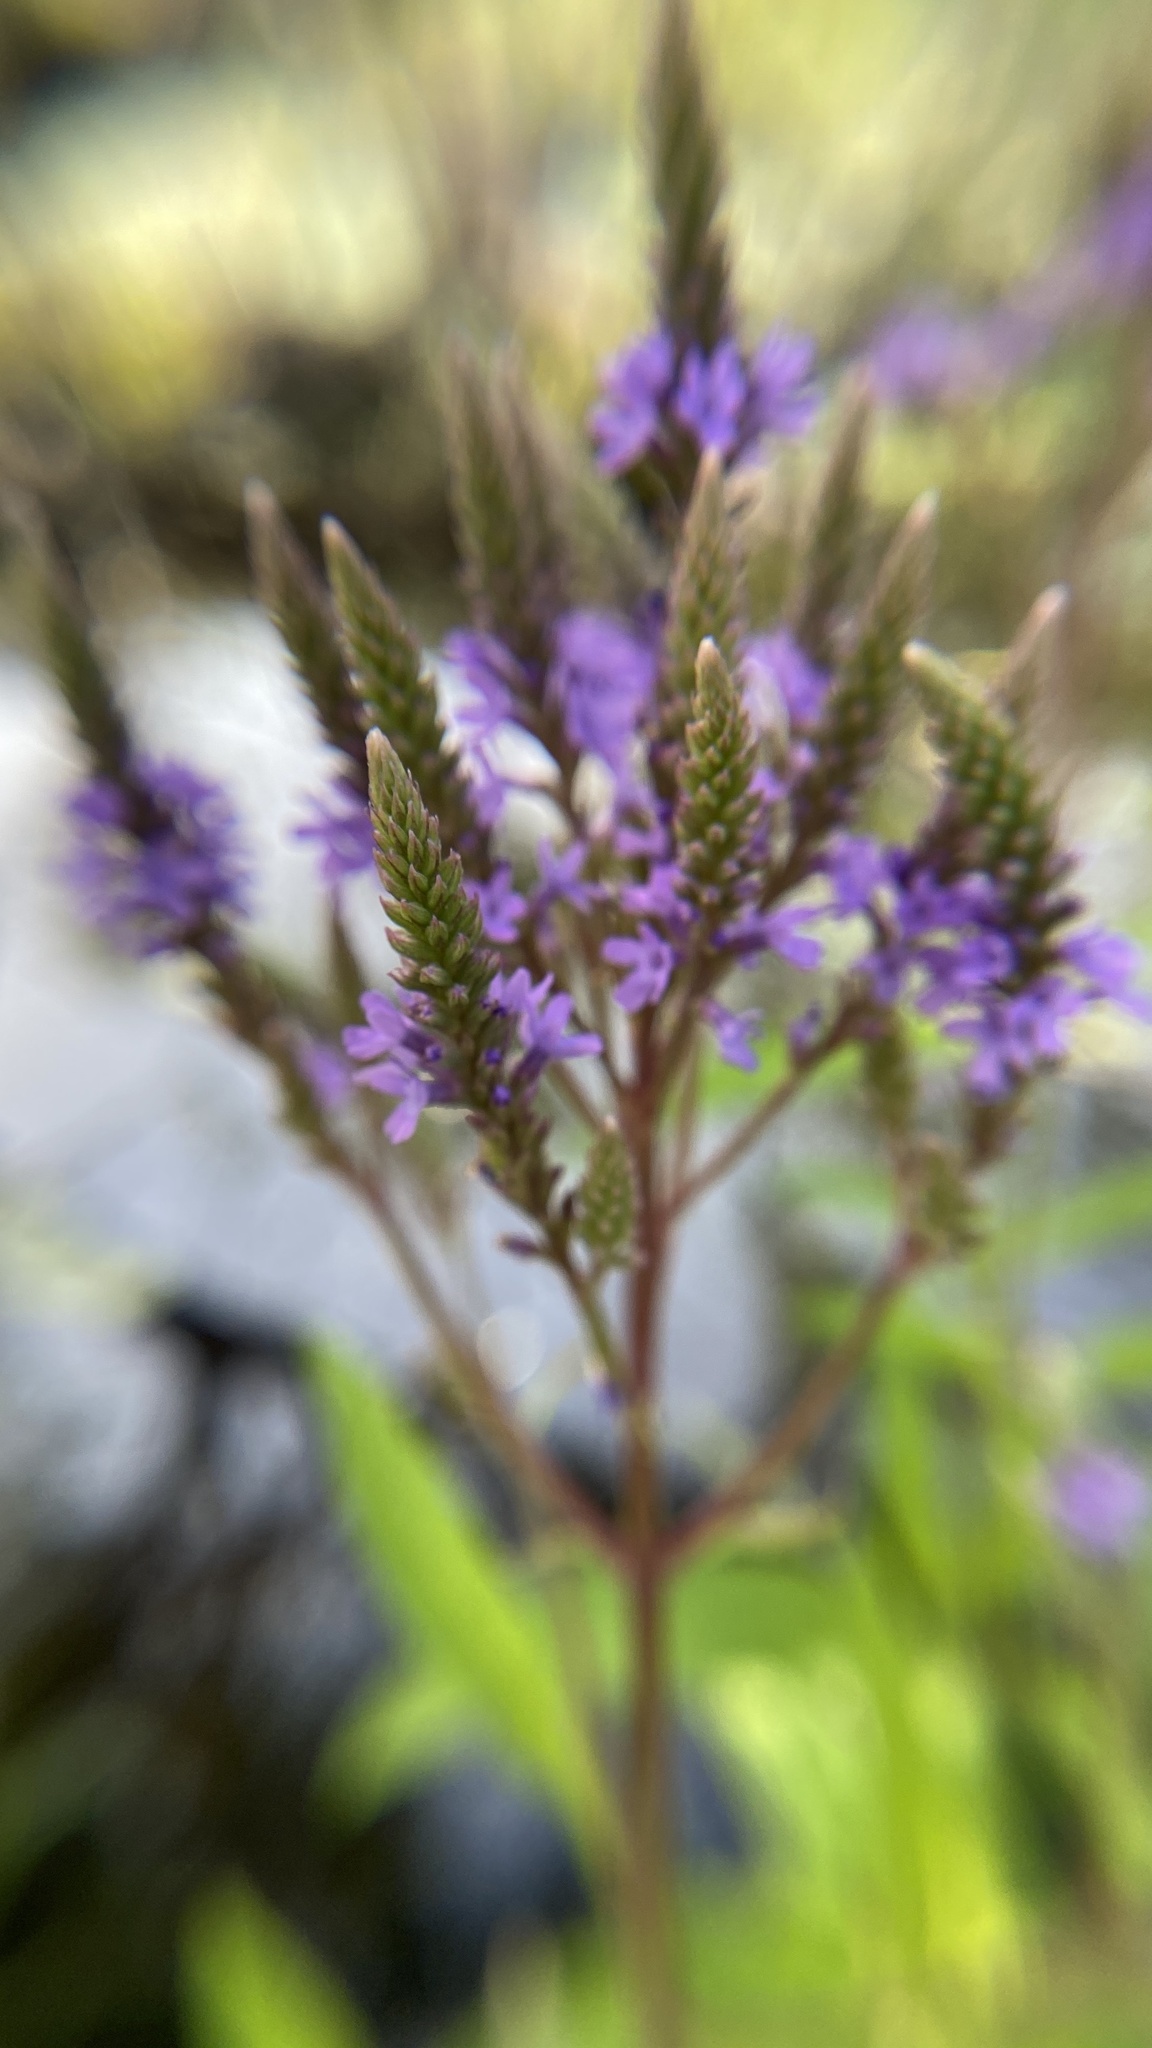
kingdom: Plantae
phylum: Tracheophyta
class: Magnoliopsida
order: Lamiales
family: Verbenaceae
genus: Verbena
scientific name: Verbena hastata
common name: American blue vervain
